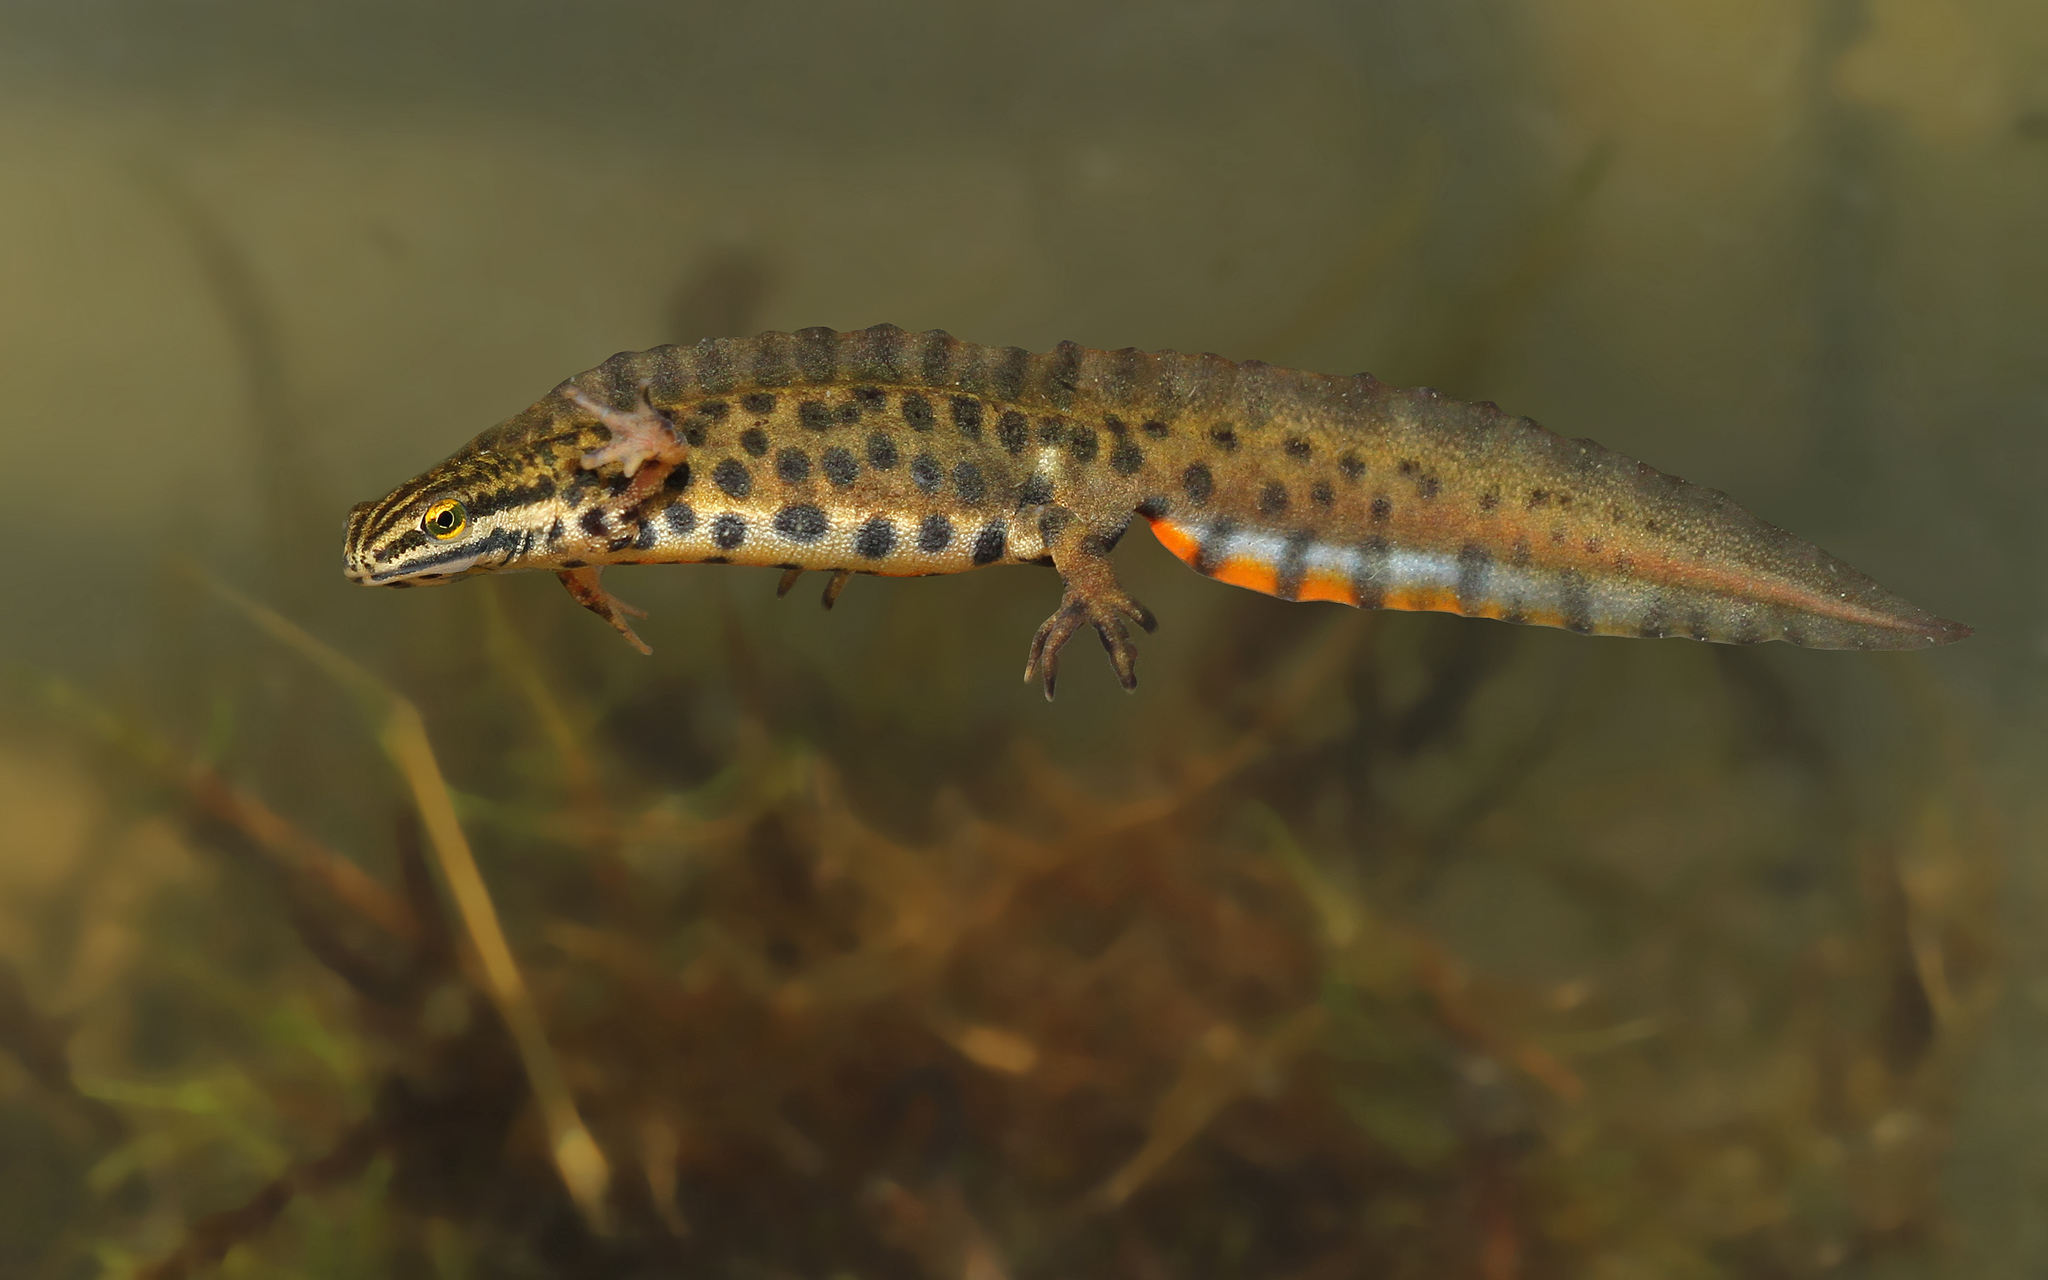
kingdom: Animalia
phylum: Chordata
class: Amphibia
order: Caudata
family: Salamandridae
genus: Lissotriton
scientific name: Lissotriton vulgaris
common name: Smooth newt
